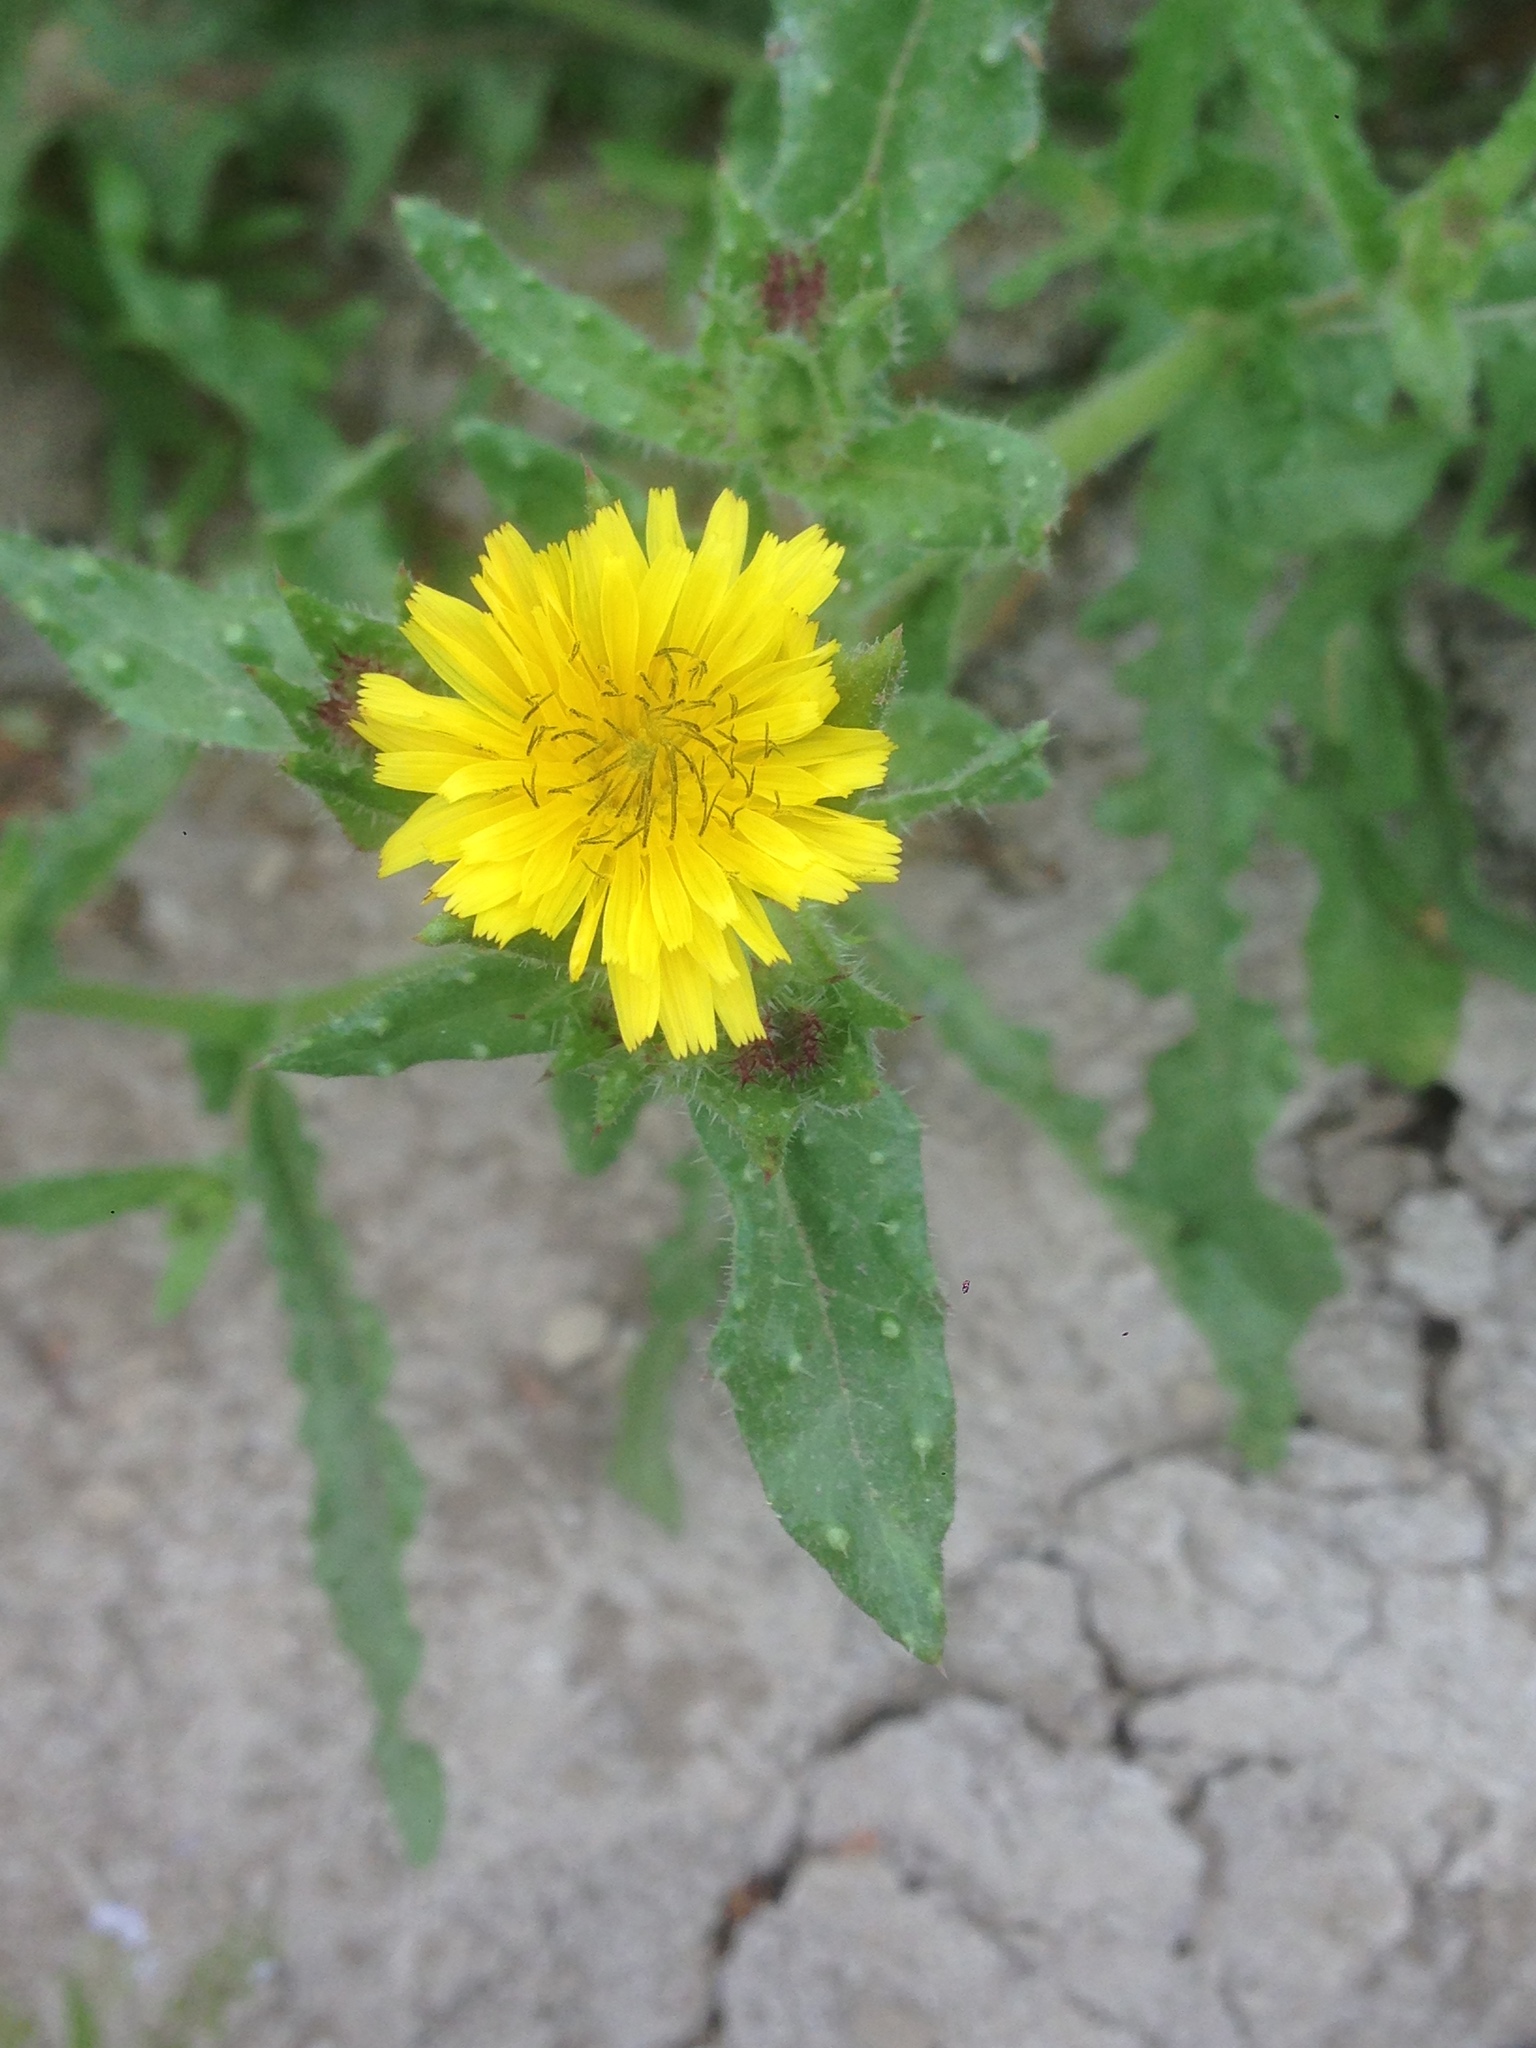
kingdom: Plantae
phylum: Tracheophyta
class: Magnoliopsida
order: Asterales
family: Asteraceae
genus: Helminthotheca
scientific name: Helminthotheca echioides
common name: Ox-tongue
